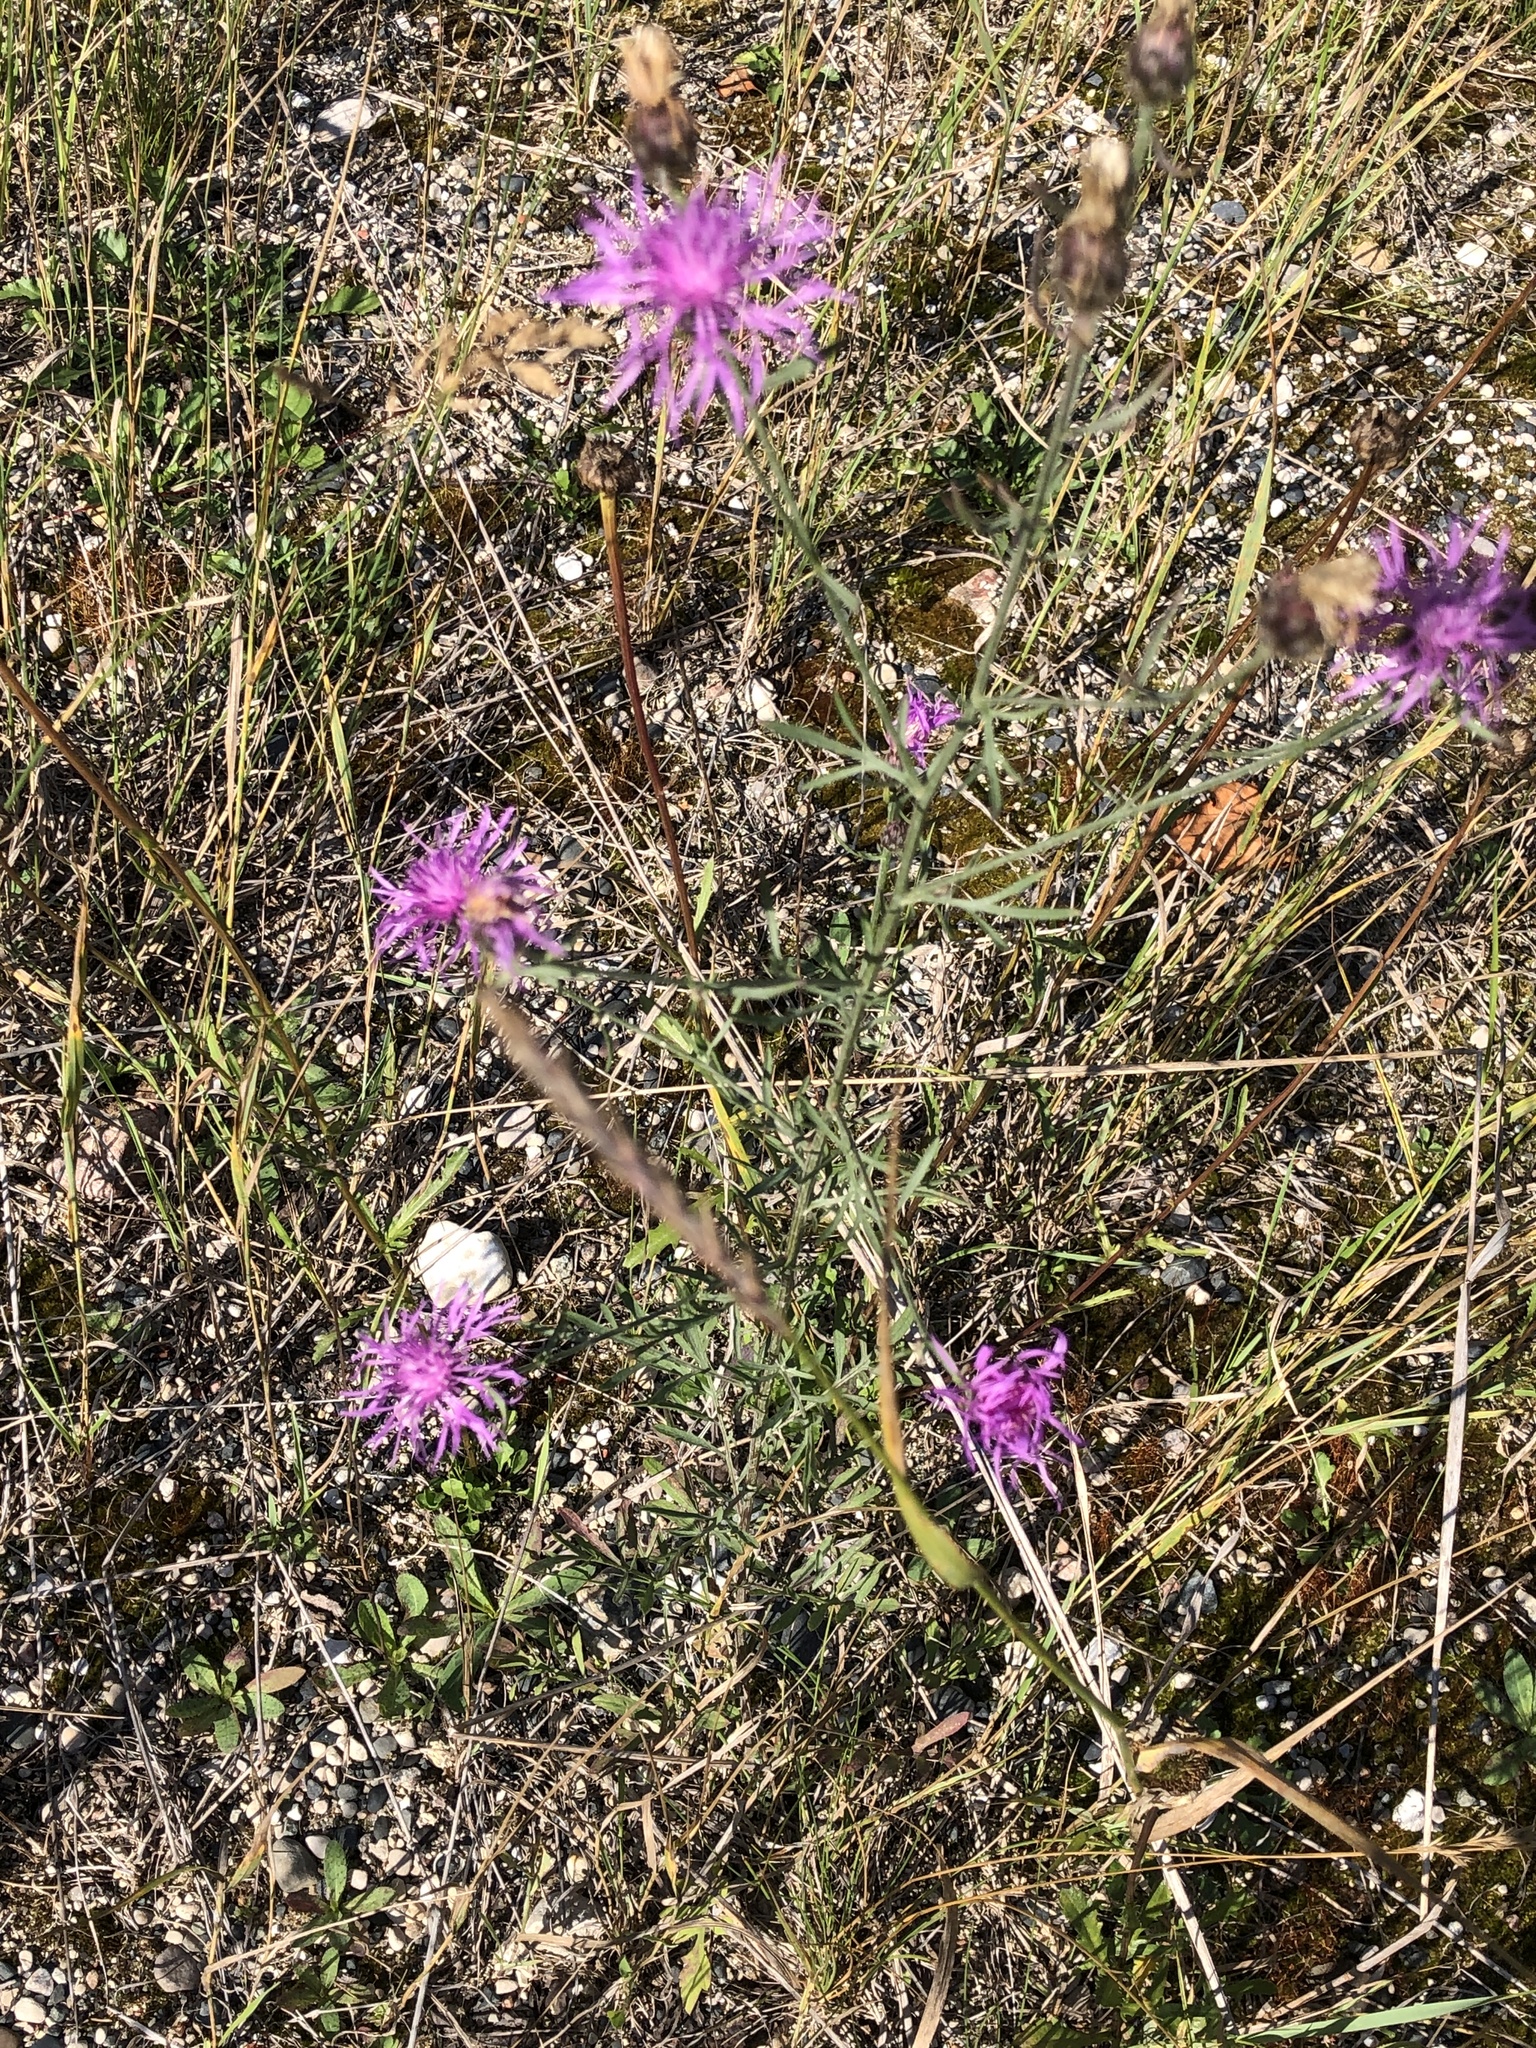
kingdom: Plantae
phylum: Tracheophyta
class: Magnoliopsida
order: Asterales
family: Asteraceae
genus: Centaurea
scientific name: Centaurea stoebe
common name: Spotted knapweed
